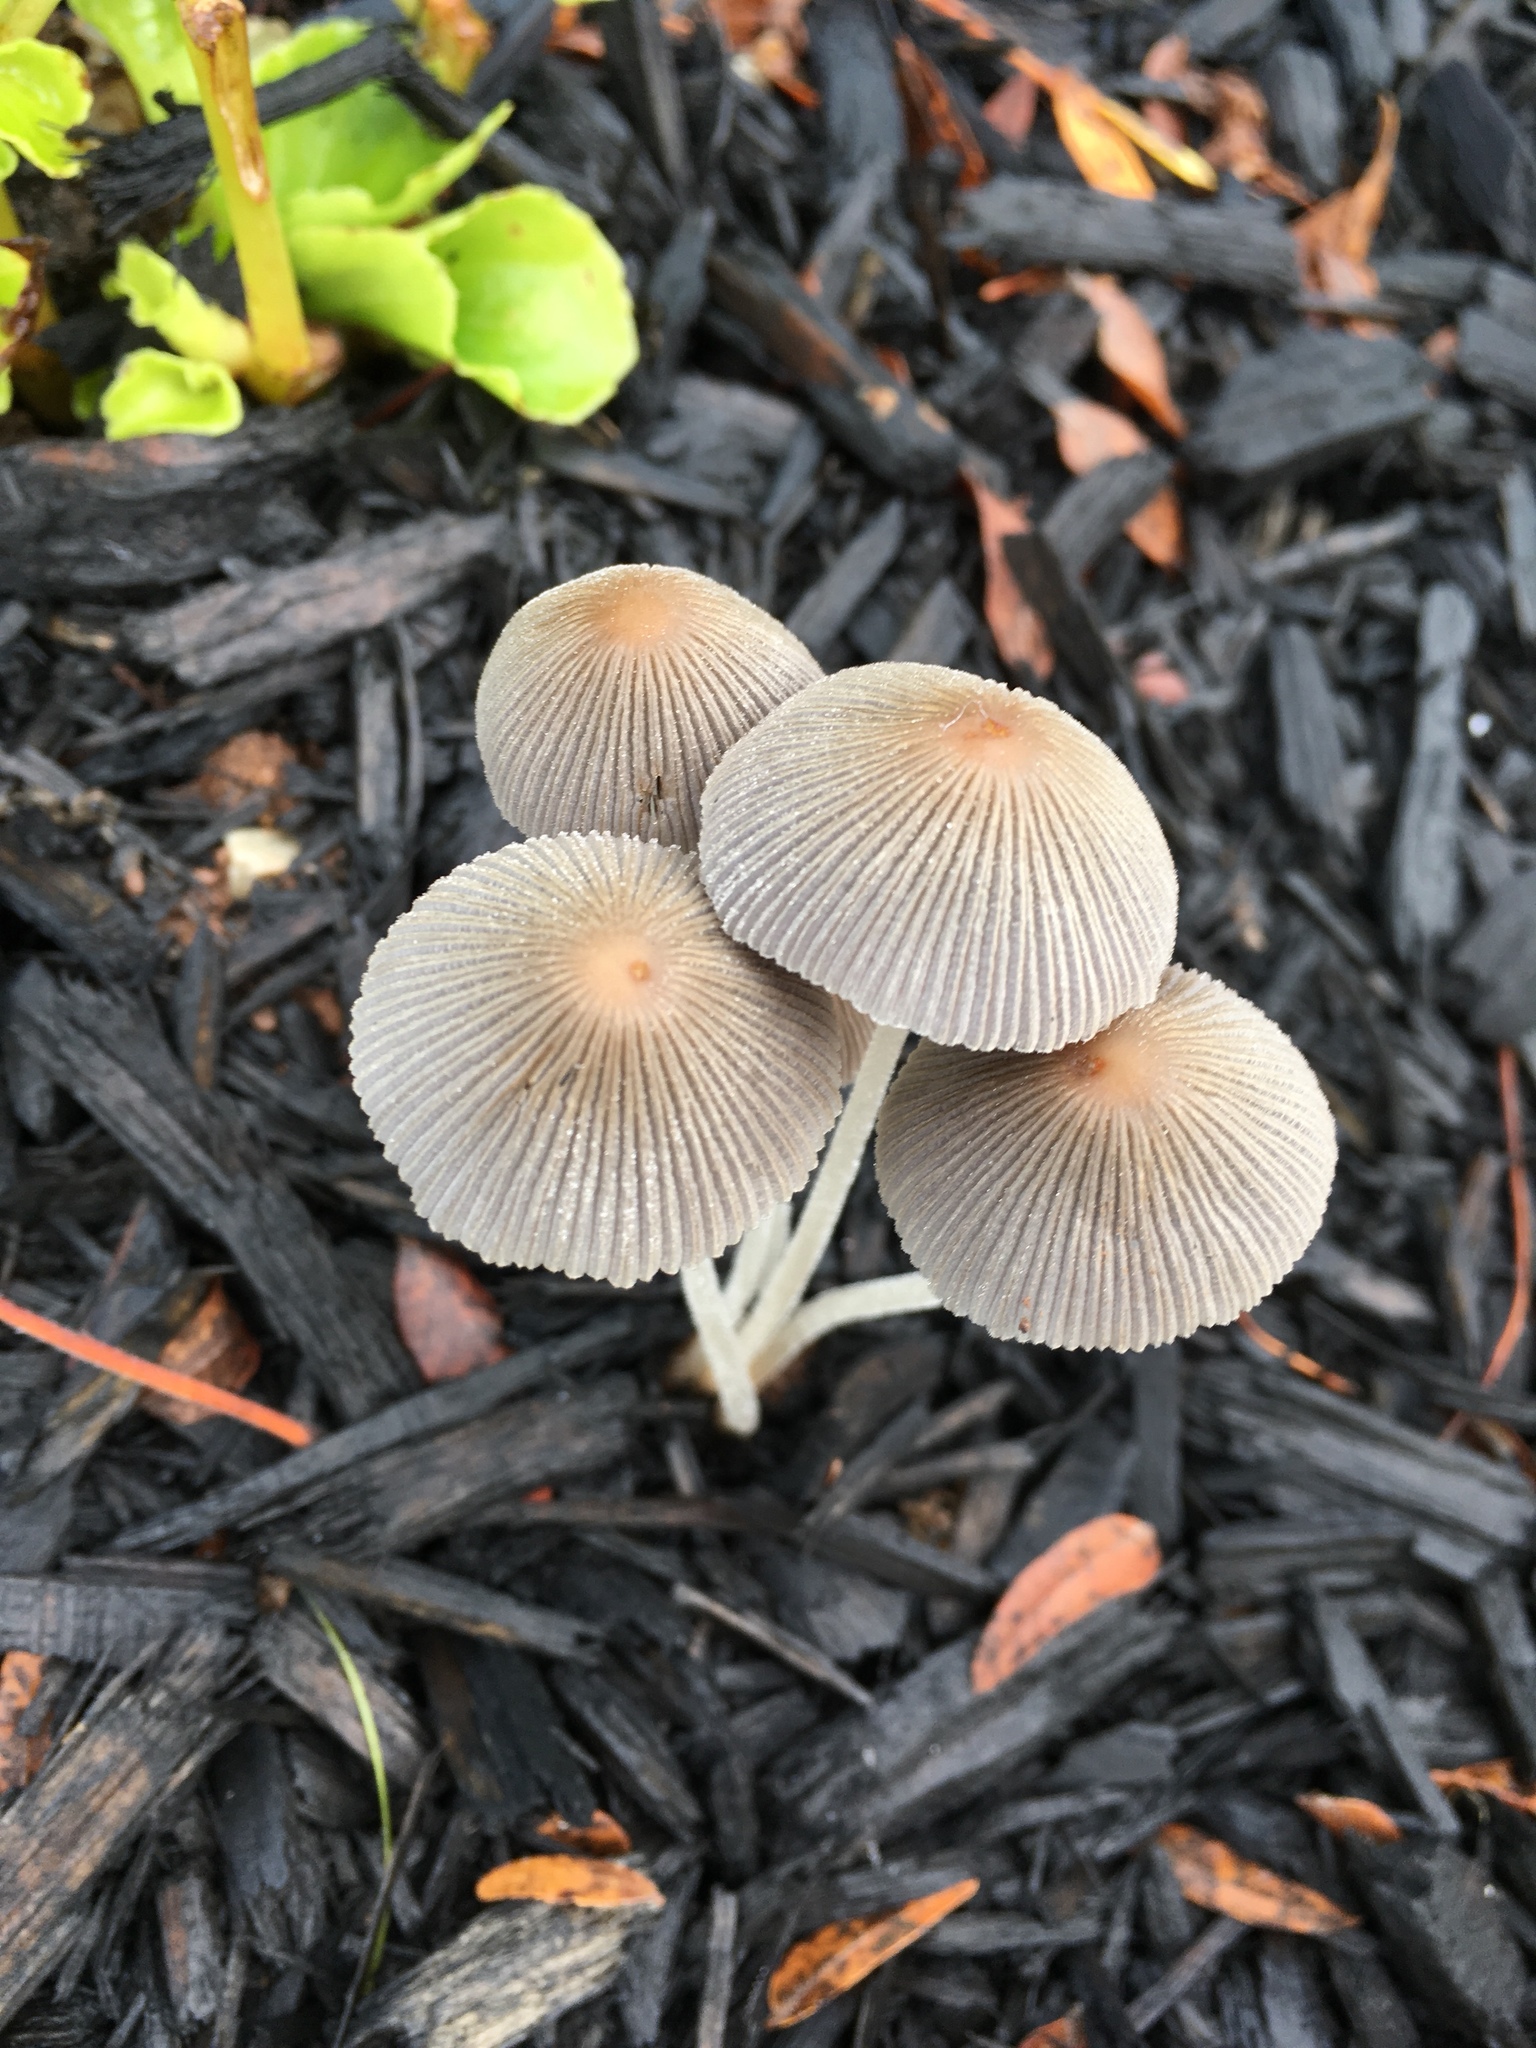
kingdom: Fungi
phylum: Basidiomycota
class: Agaricomycetes
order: Agaricales
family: Psathyrellaceae
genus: Parasola
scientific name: Parasola plicatilis
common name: Pleated inkcap
